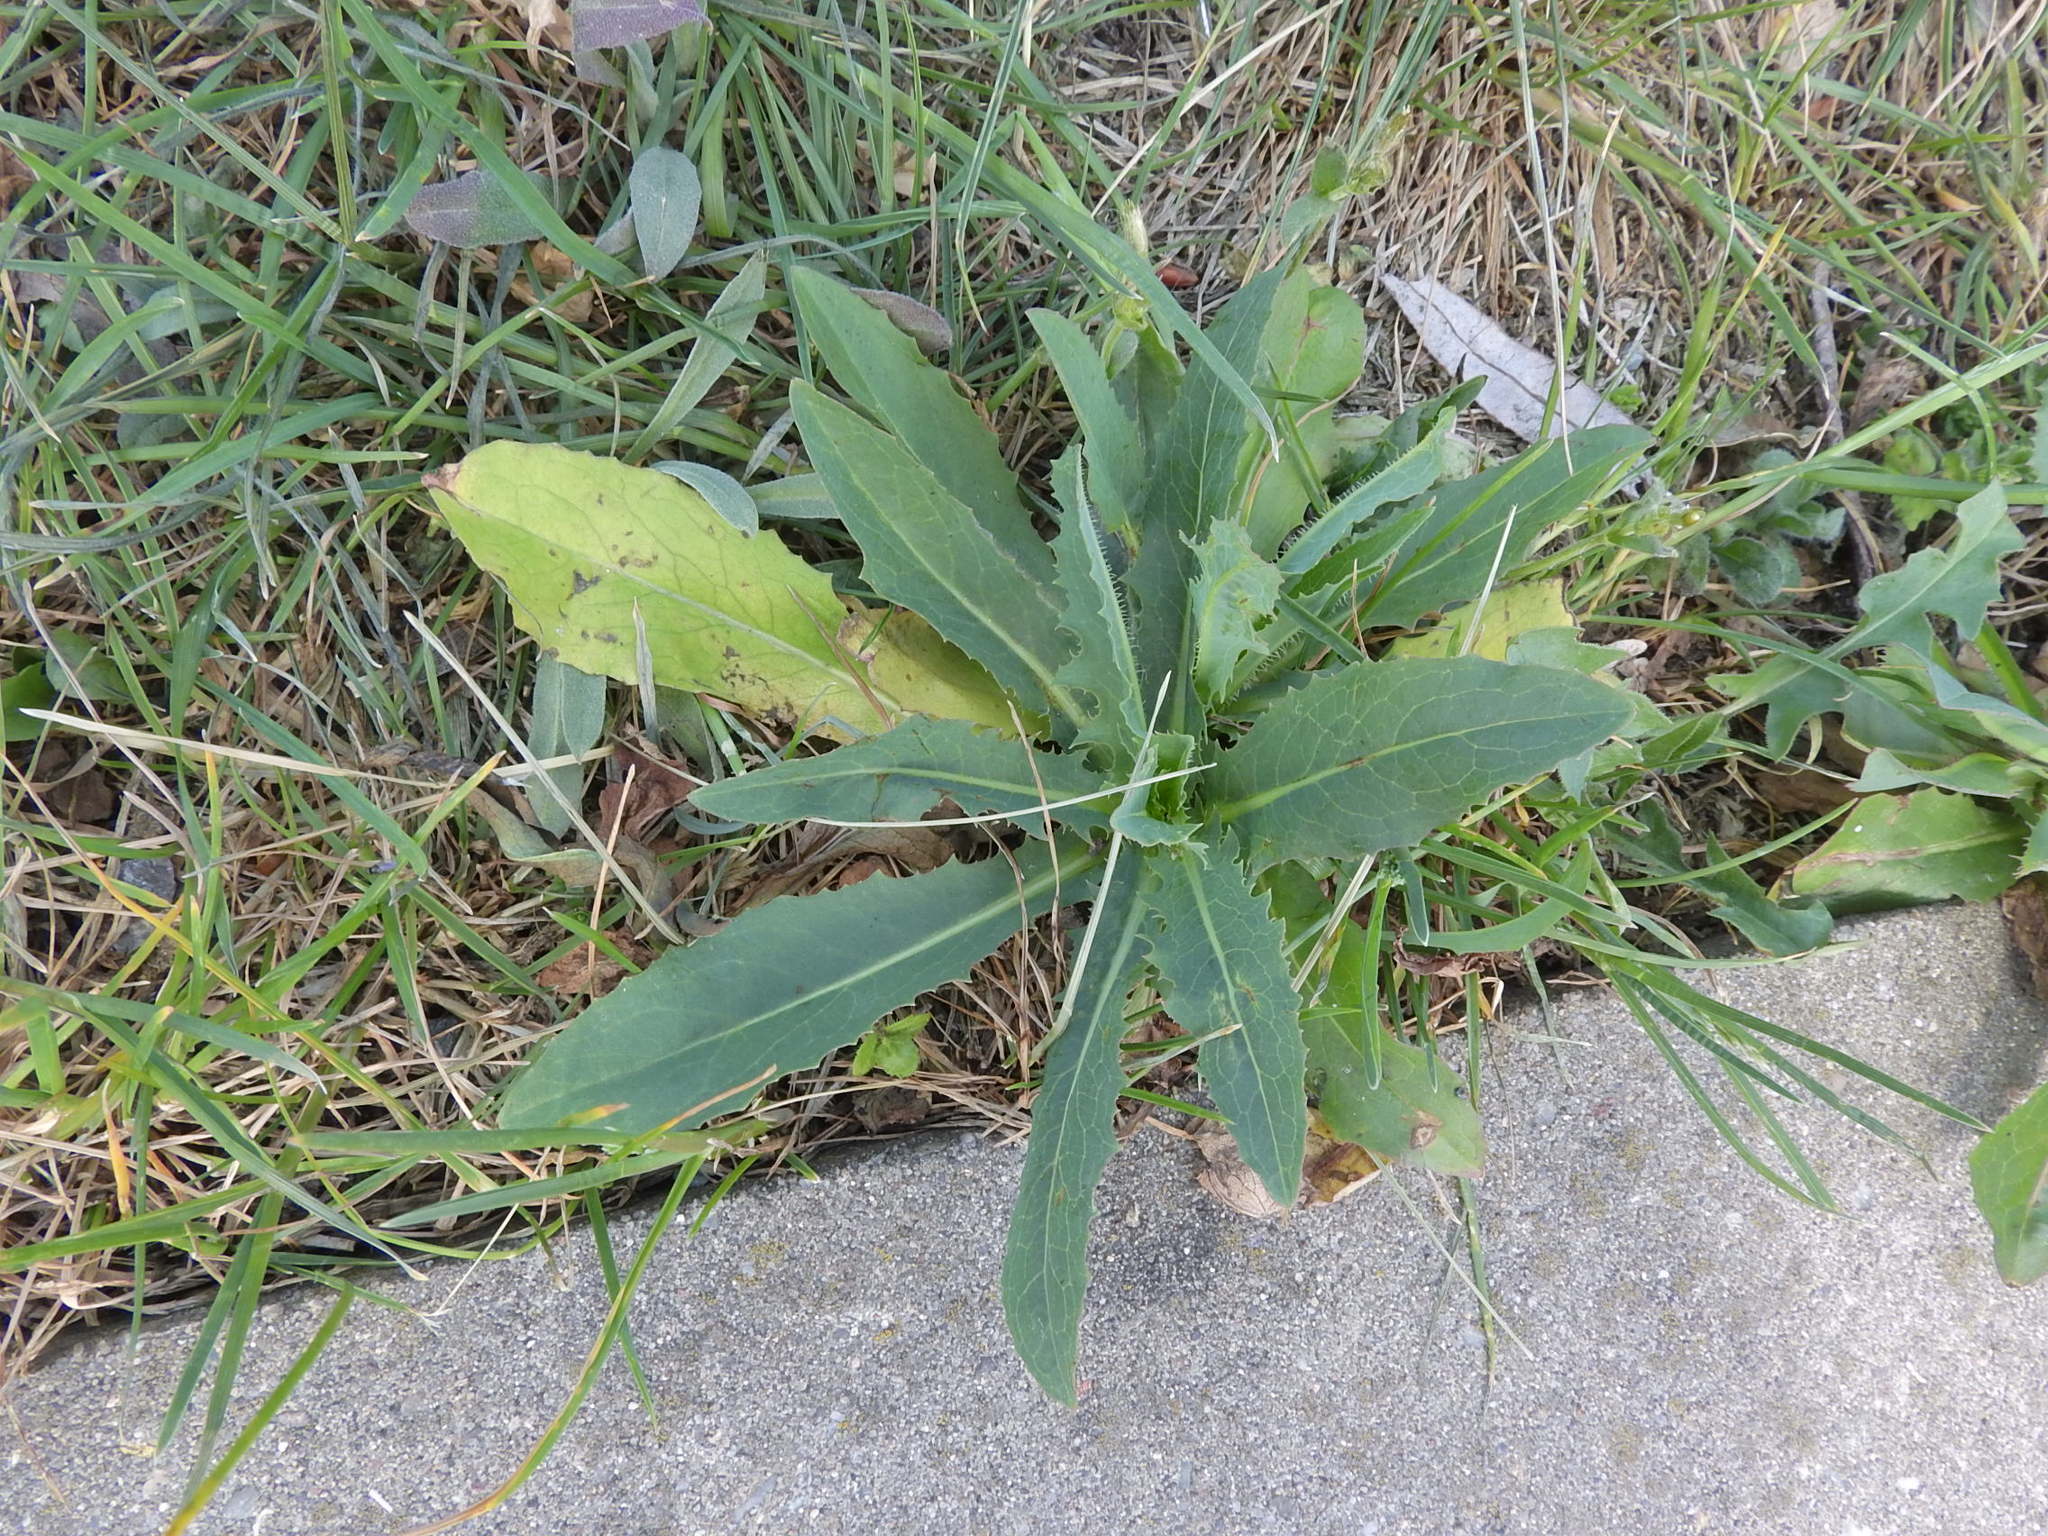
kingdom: Plantae
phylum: Tracheophyta
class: Magnoliopsida
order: Asterales
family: Asteraceae
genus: Lactuca
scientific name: Lactuca serriola
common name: Prickly lettuce
